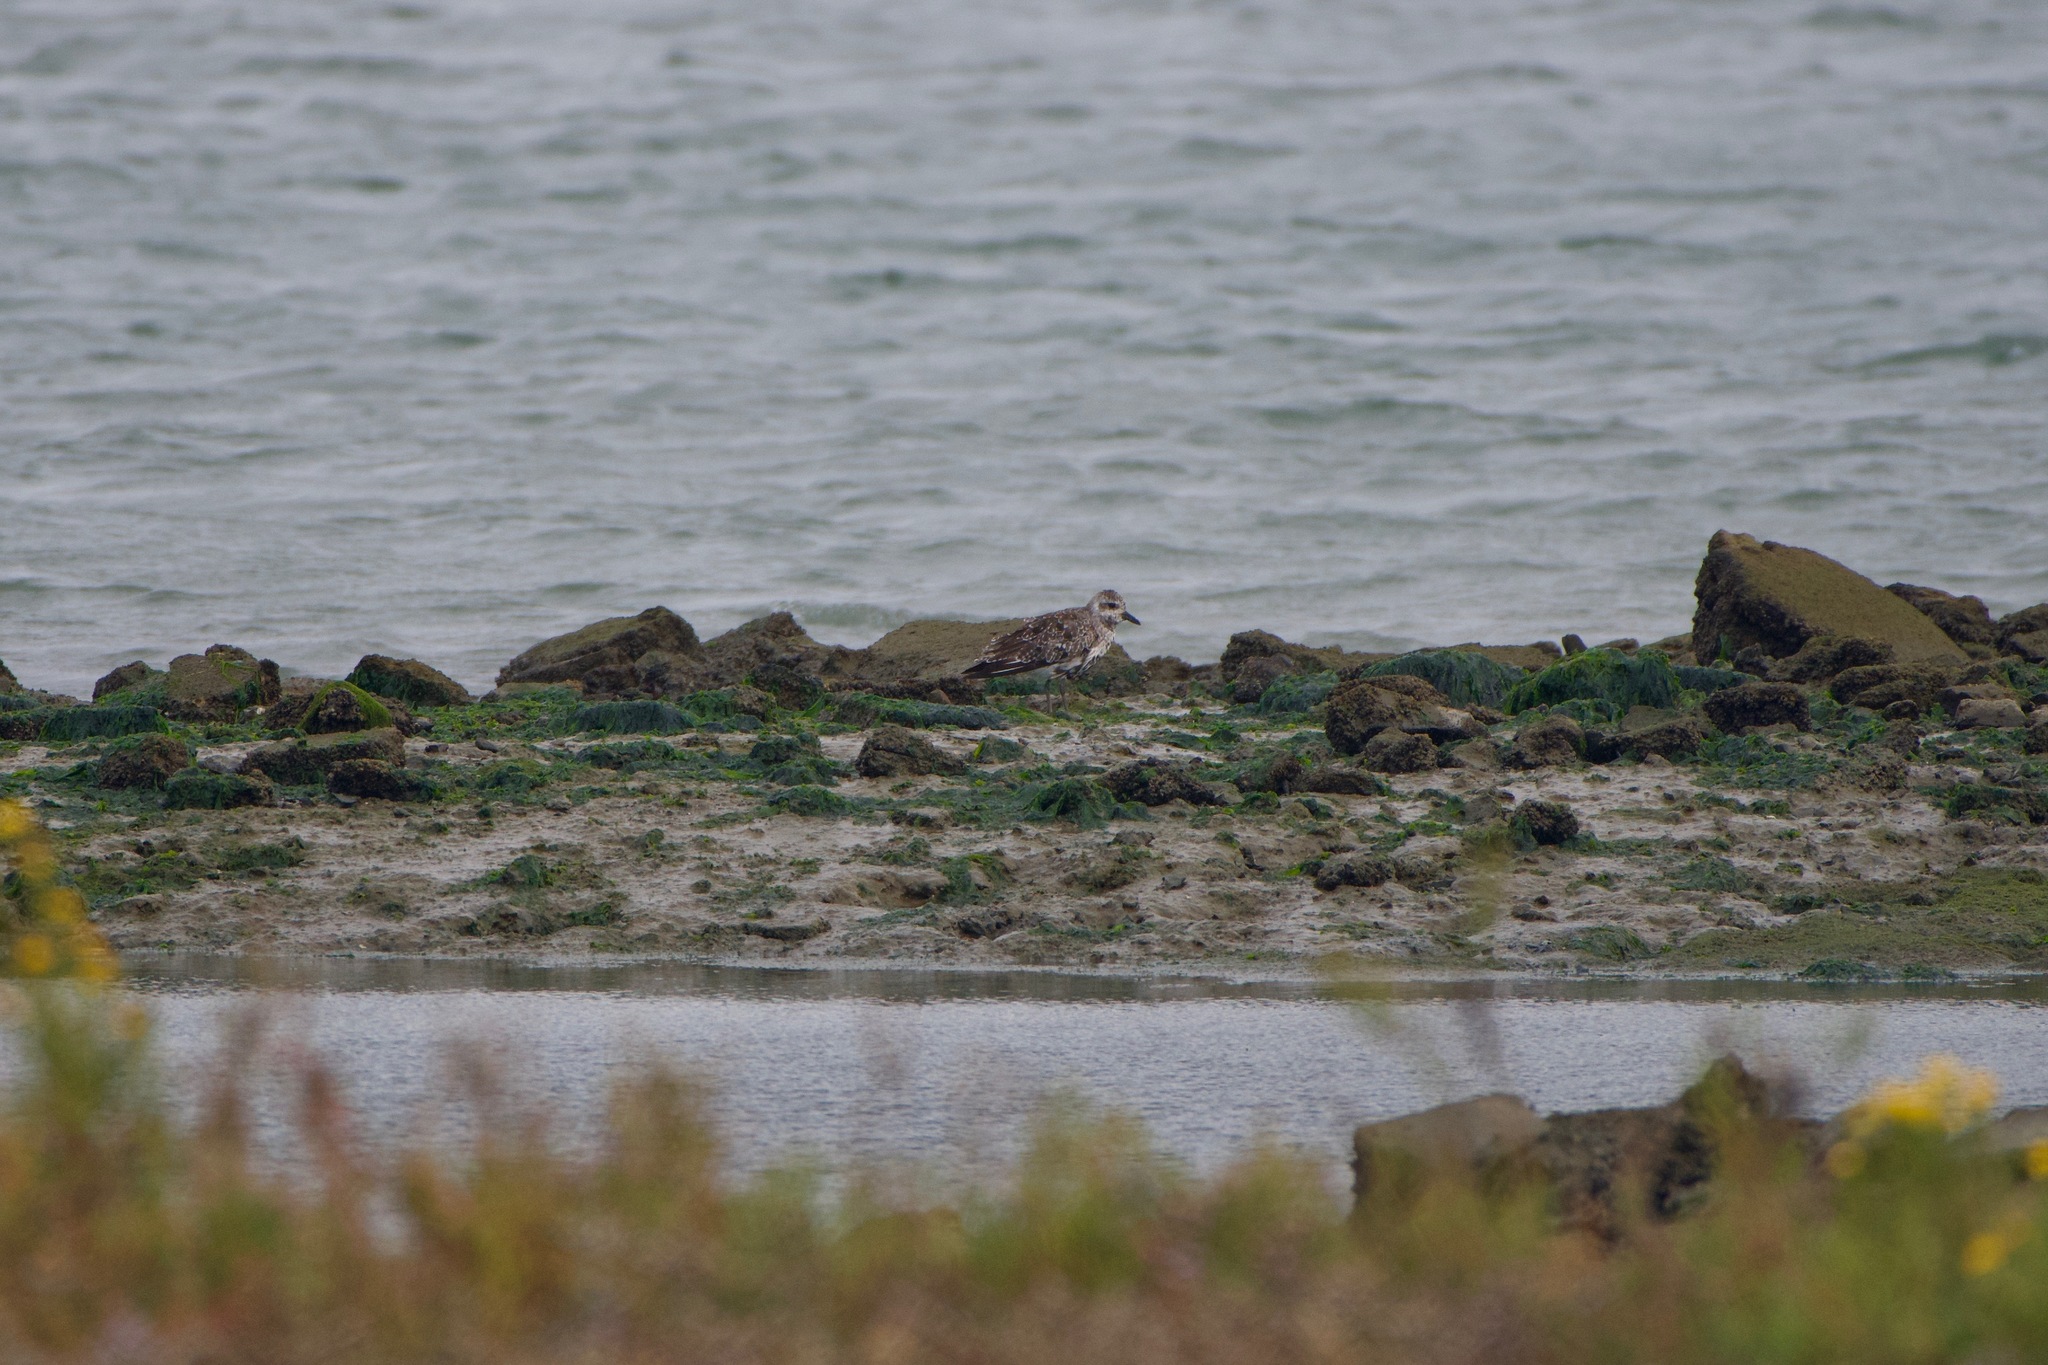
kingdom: Animalia
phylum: Chordata
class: Aves
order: Charadriiformes
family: Charadriidae
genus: Pluvialis
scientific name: Pluvialis squatarola
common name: Grey plover
